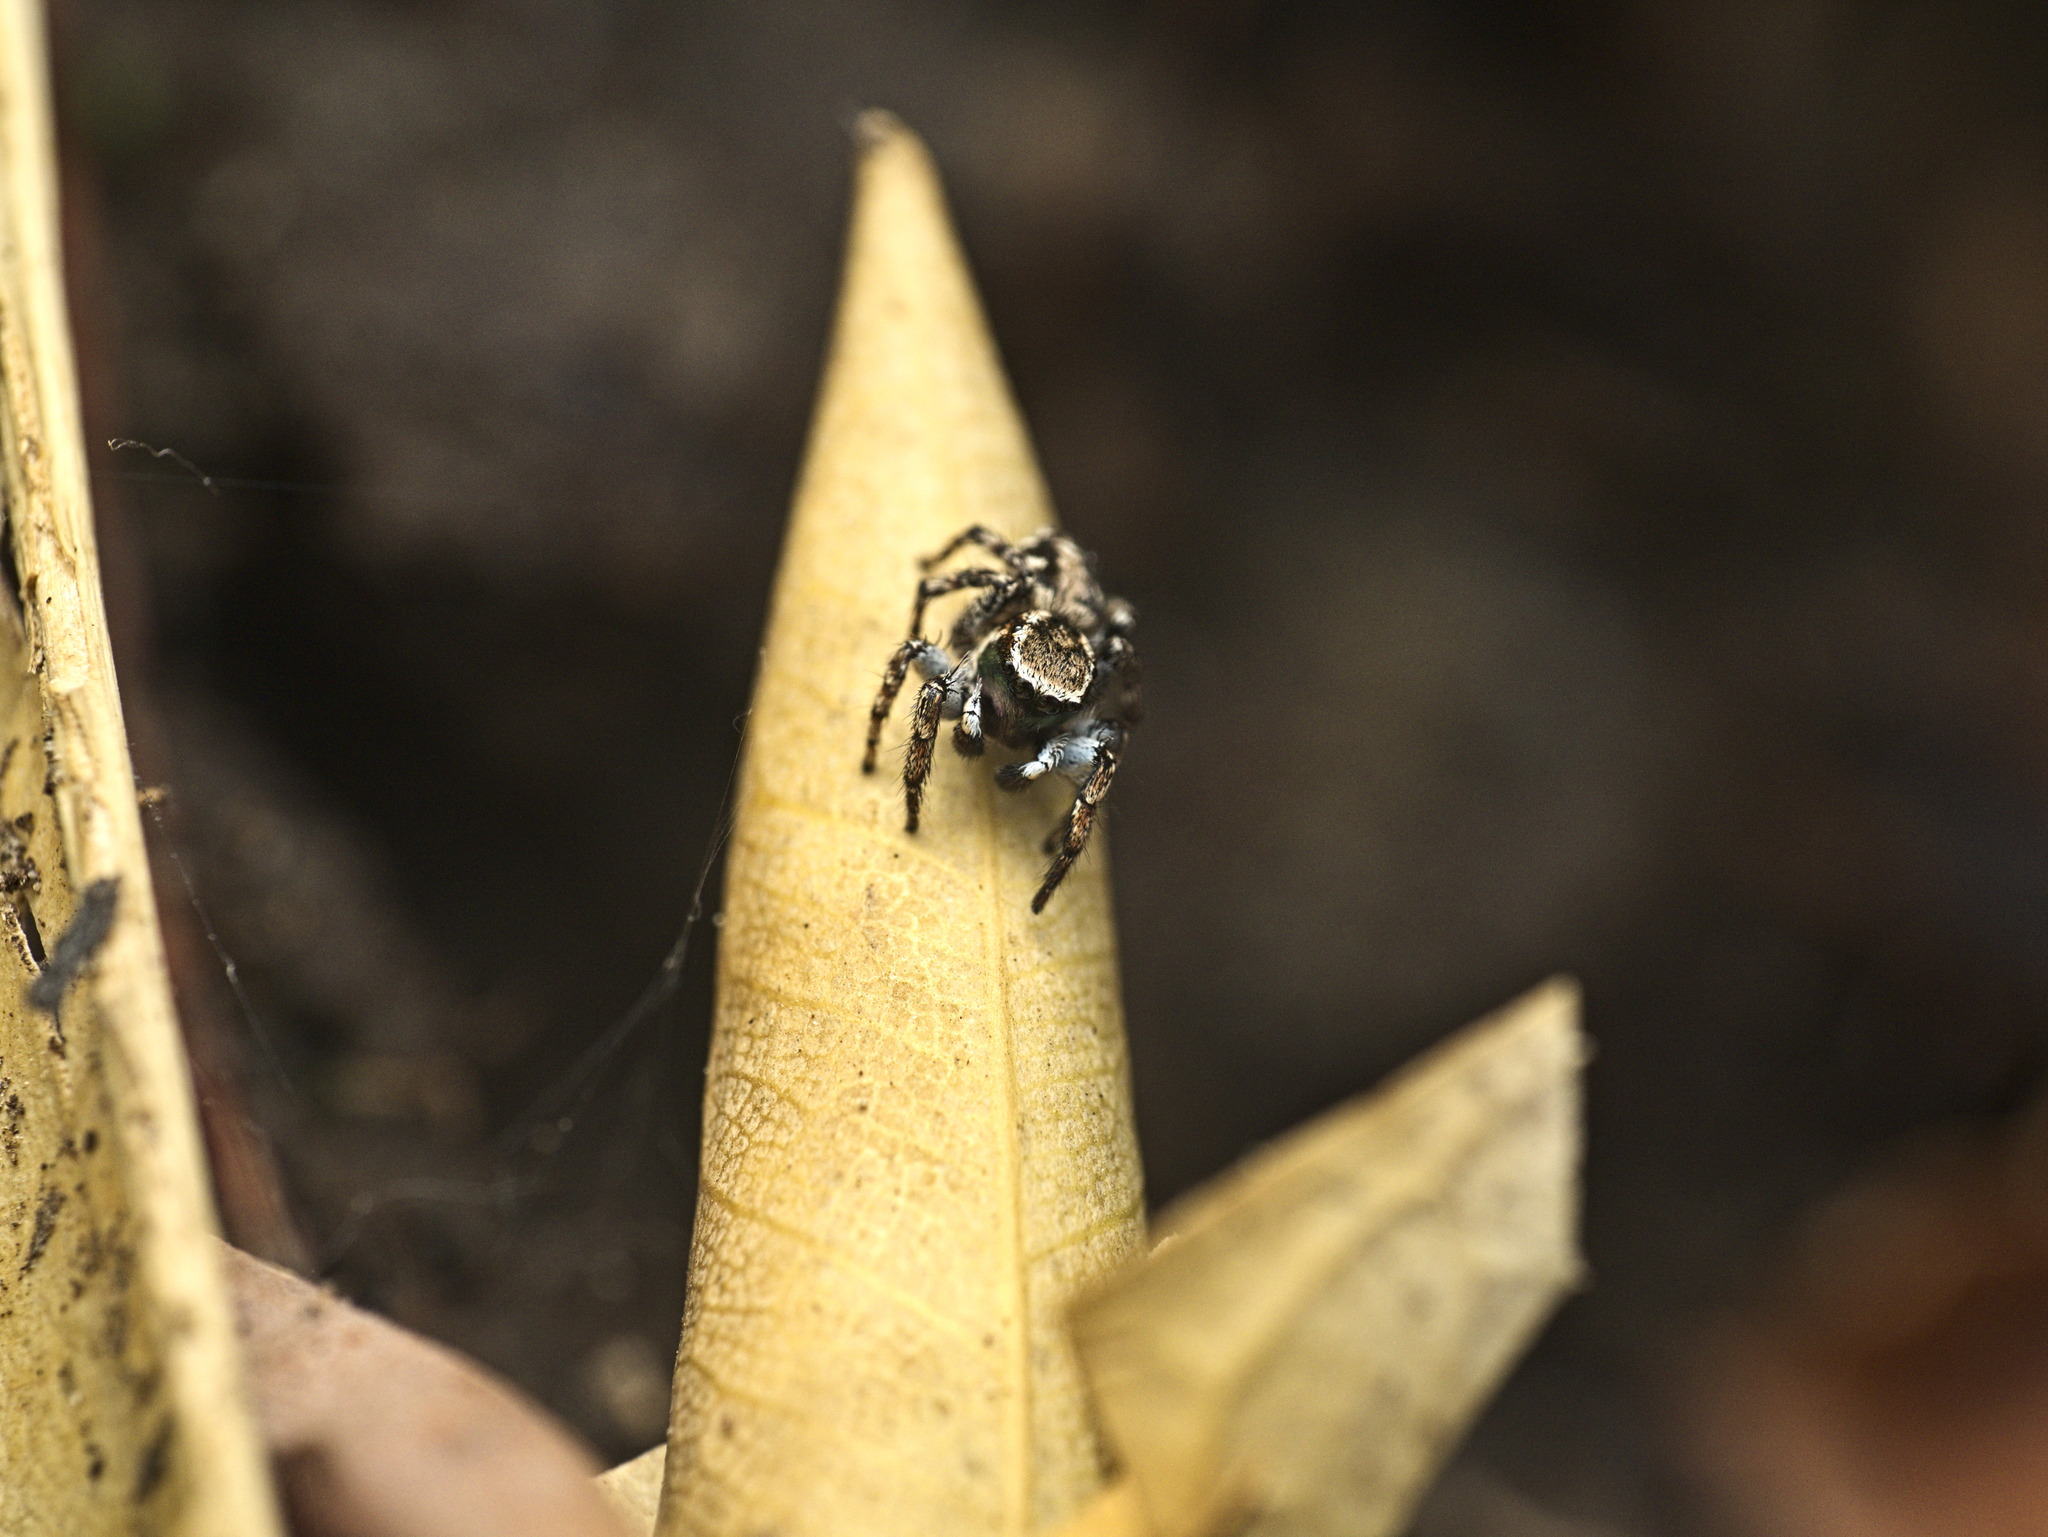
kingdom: Animalia
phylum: Arthropoda
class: Arachnida
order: Araneae
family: Salticidae
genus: Habronattus
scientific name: Habronattus cambridgei
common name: Jumping spiders
